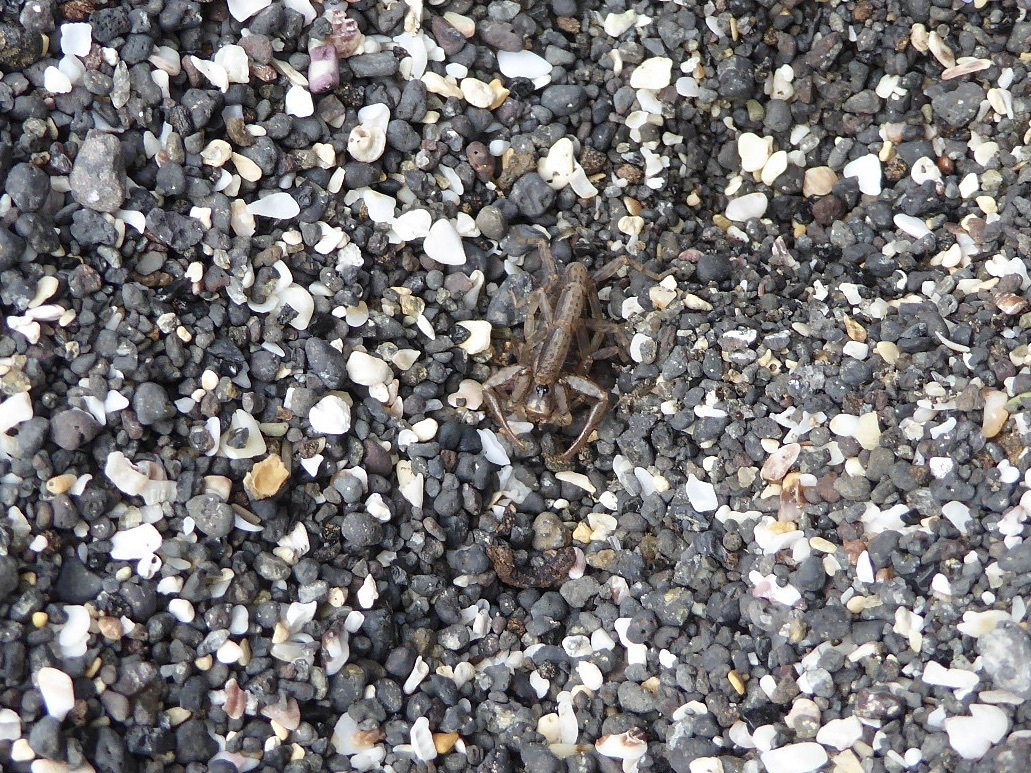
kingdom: Animalia
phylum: Arthropoda
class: Arachnida
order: Scorpiones
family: Caraboctonidae
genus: Hadruroides
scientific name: Hadruroides galapagoensis
